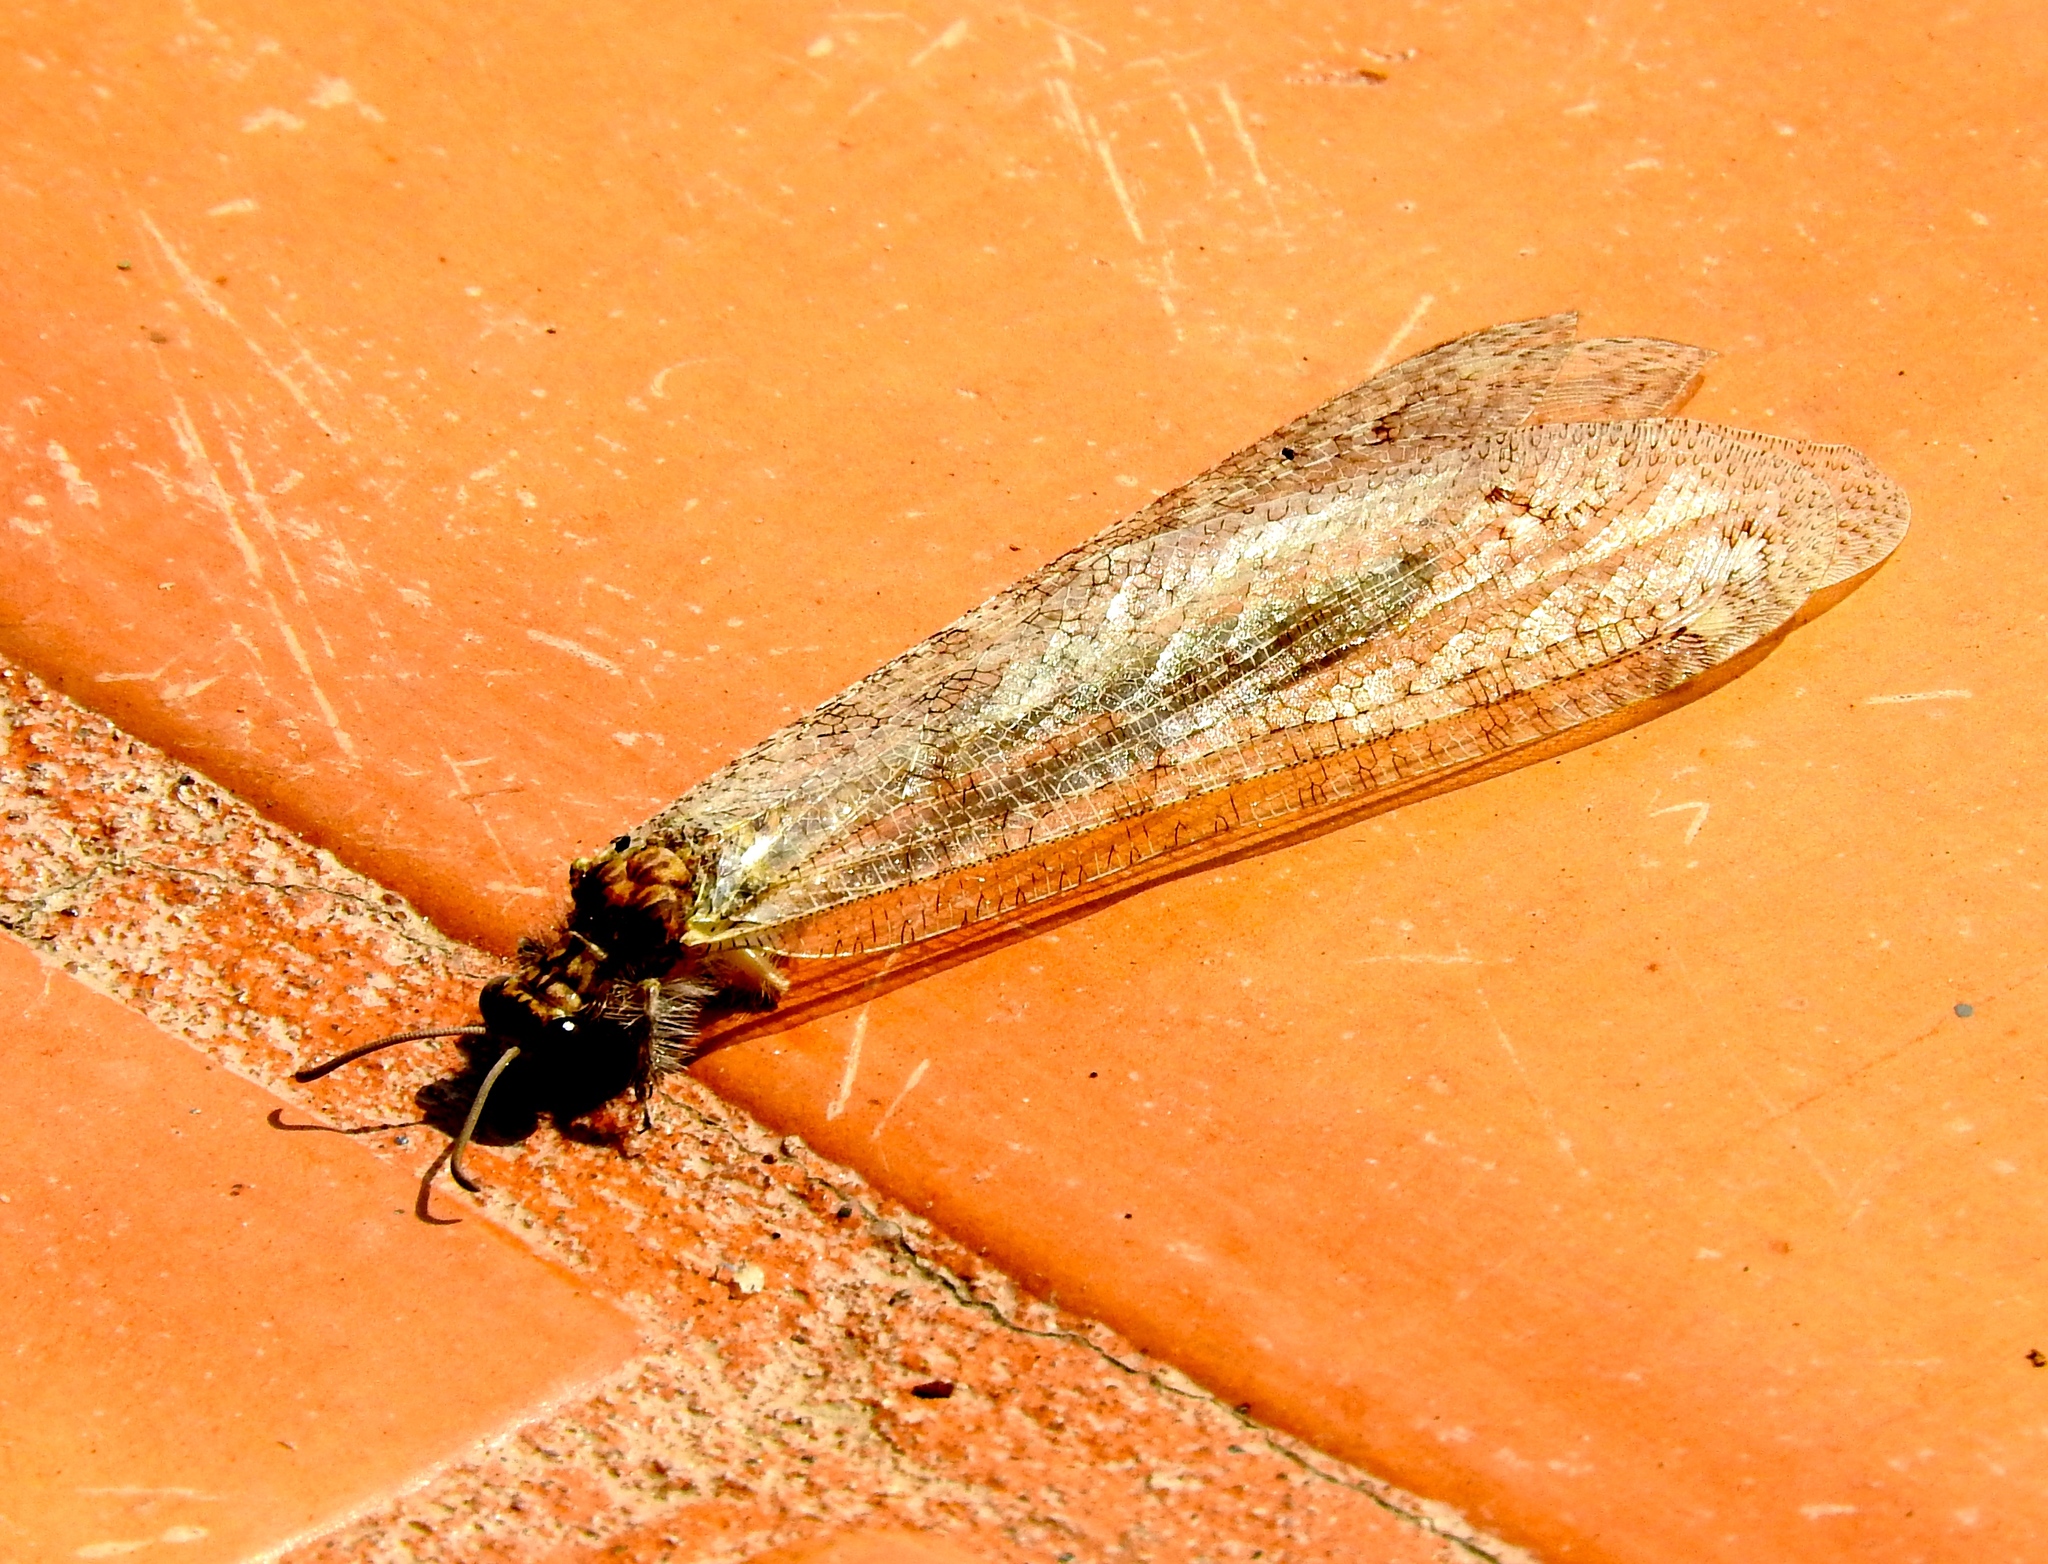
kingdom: Animalia
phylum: Arthropoda
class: Insecta
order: Neuroptera
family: Myrmeleontidae
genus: Vella
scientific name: Vella fallax
